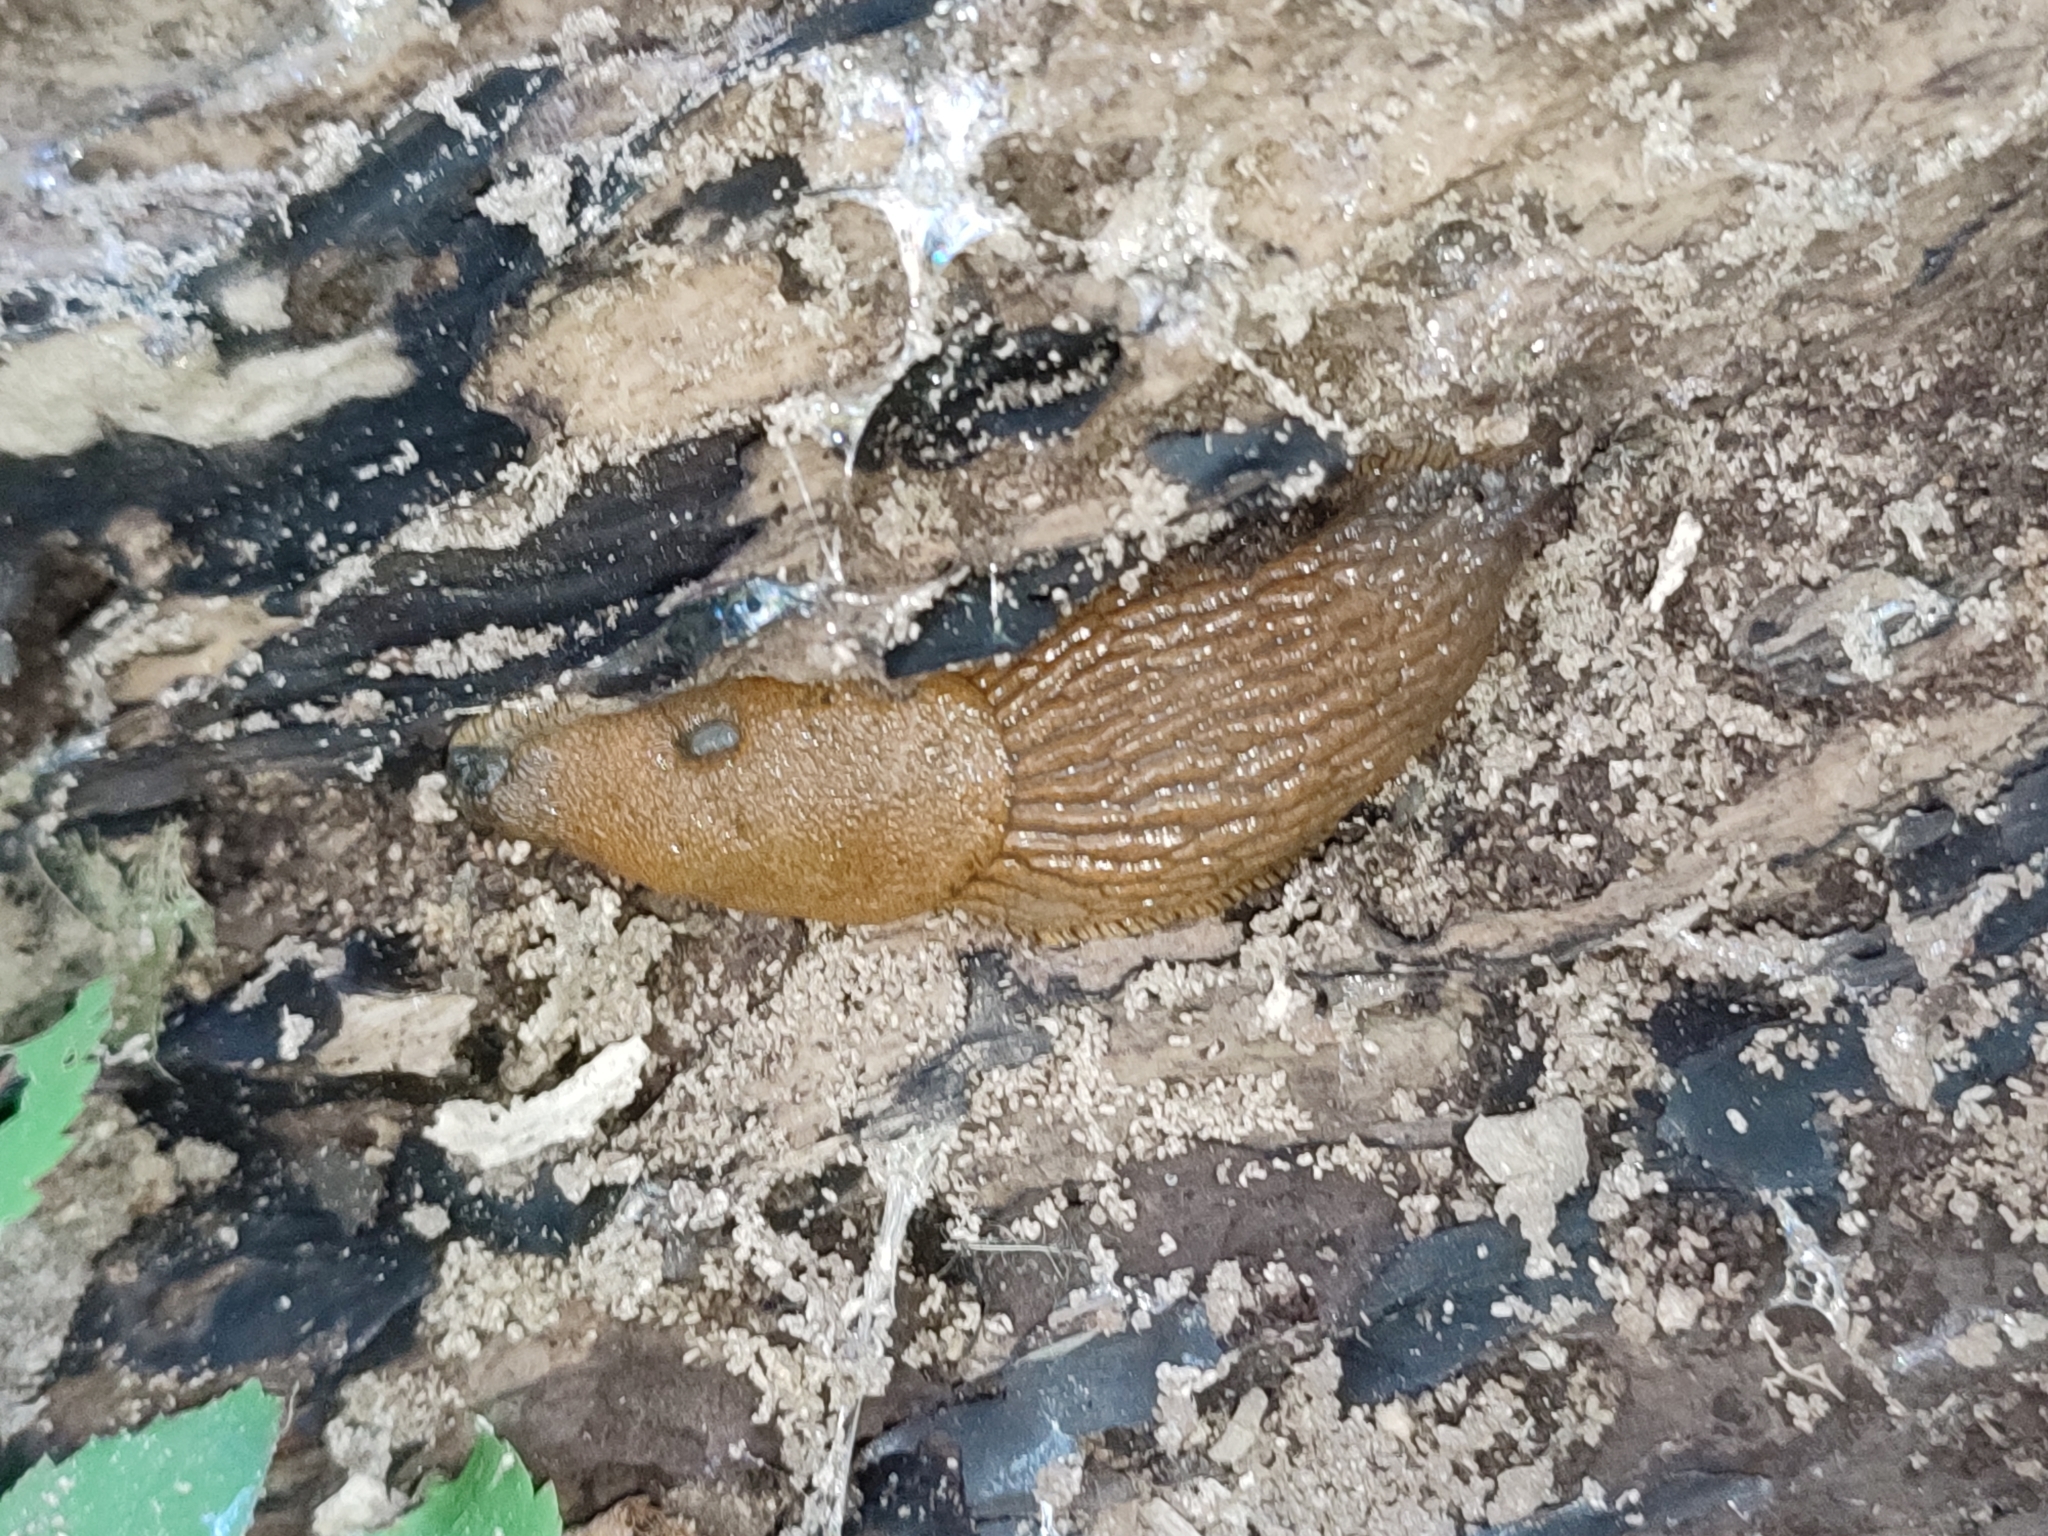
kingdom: Animalia
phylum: Mollusca
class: Gastropoda
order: Stylommatophora
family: Arionidae
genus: Arion
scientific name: Arion vulgaris
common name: Lusitanian slug
